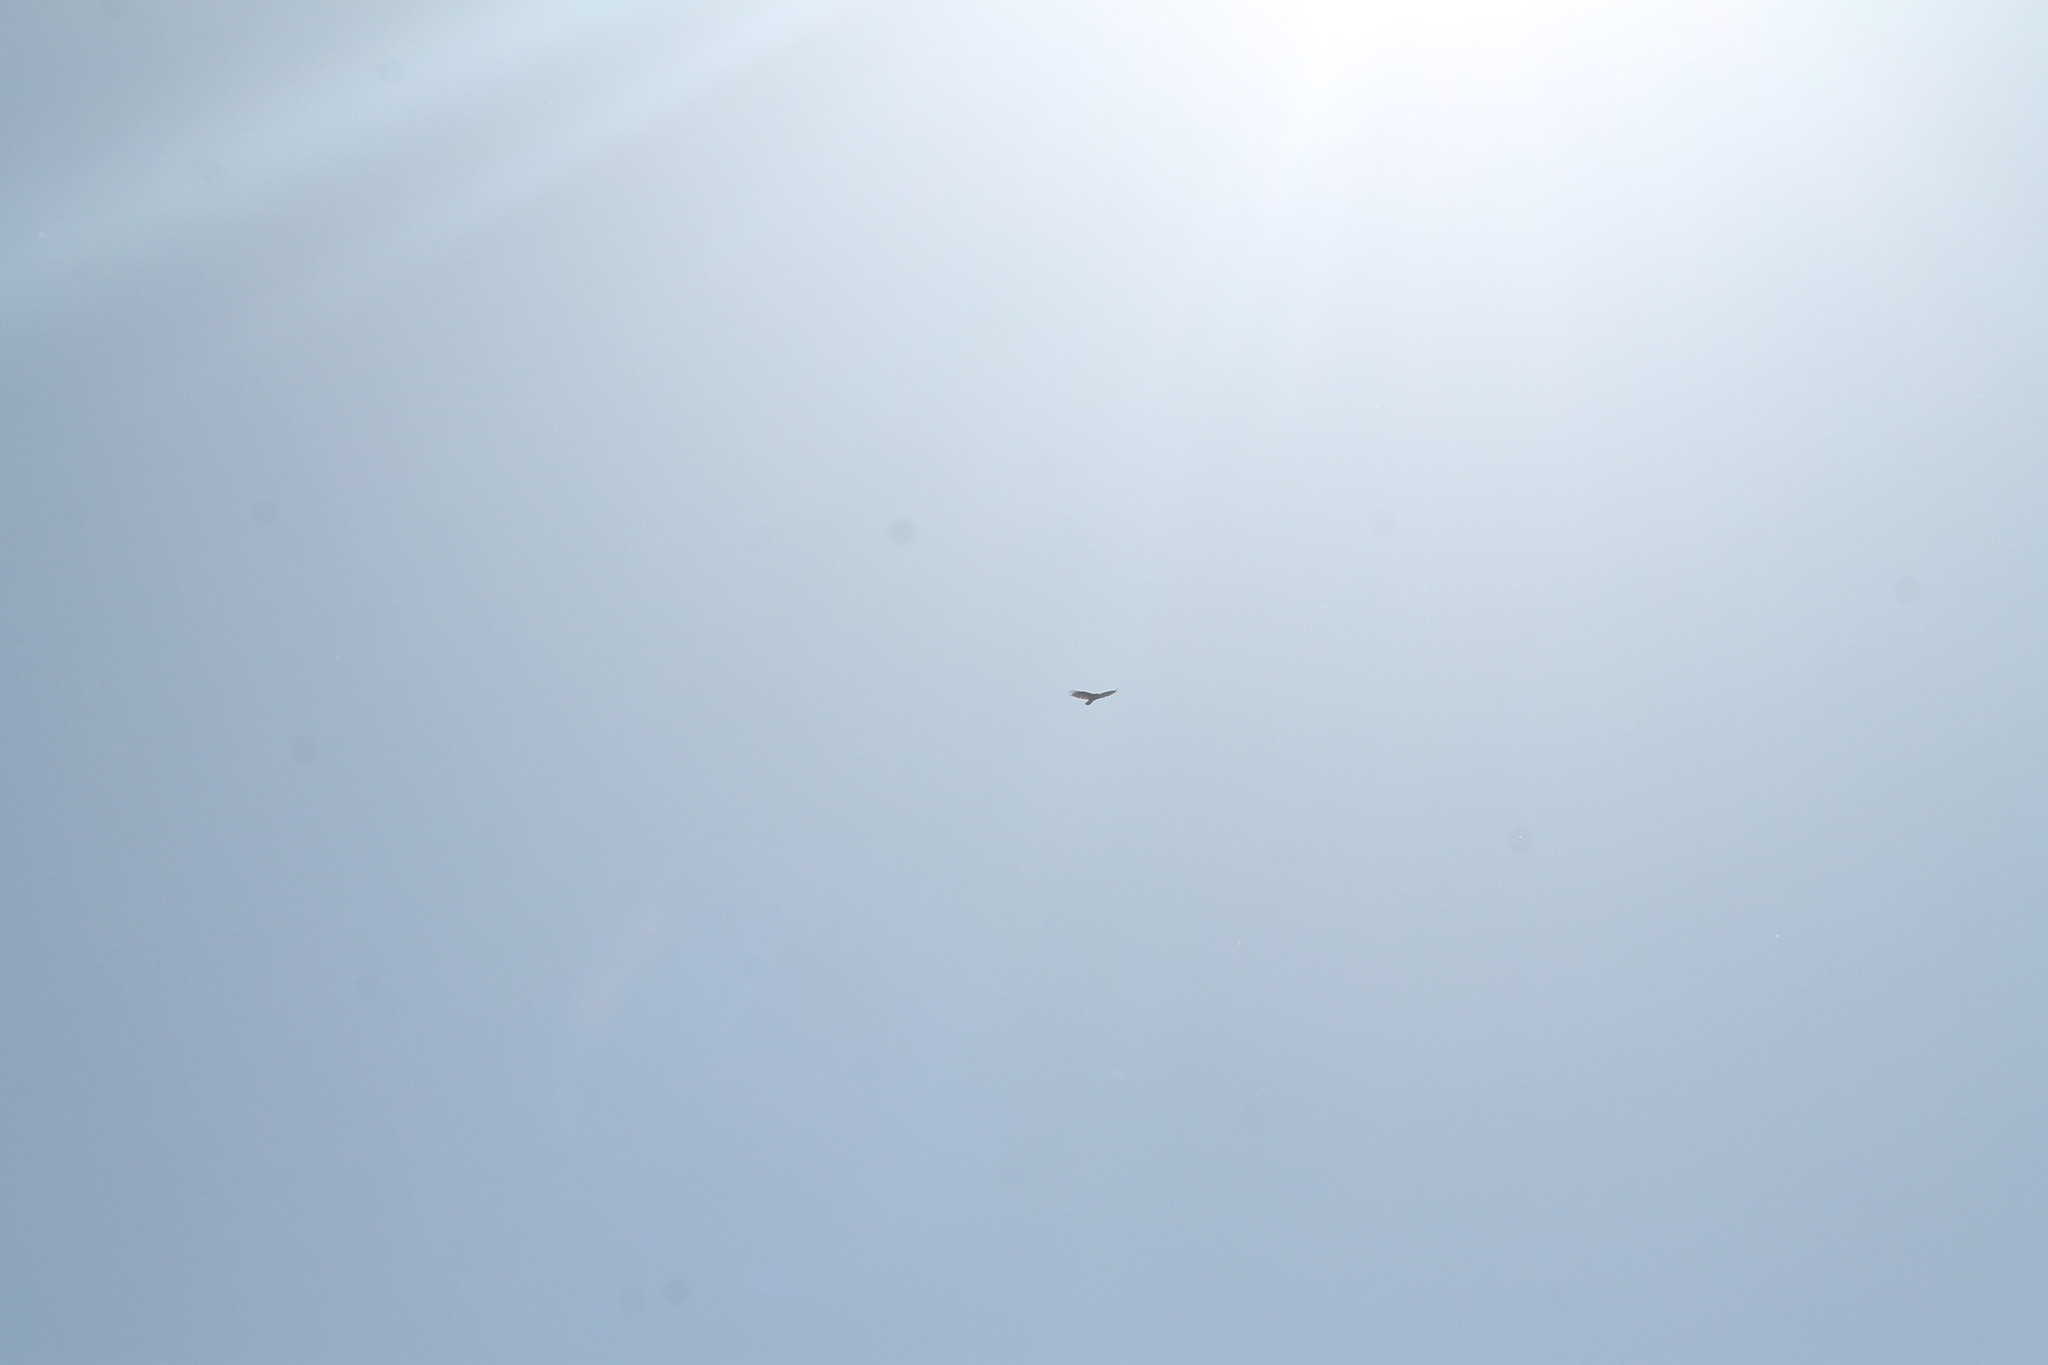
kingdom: Animalia
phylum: Chordata
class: Aves
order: Accipitriformes
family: Cathartidae
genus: Cathartes
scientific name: Cathartes aura
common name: Turkey vulture
